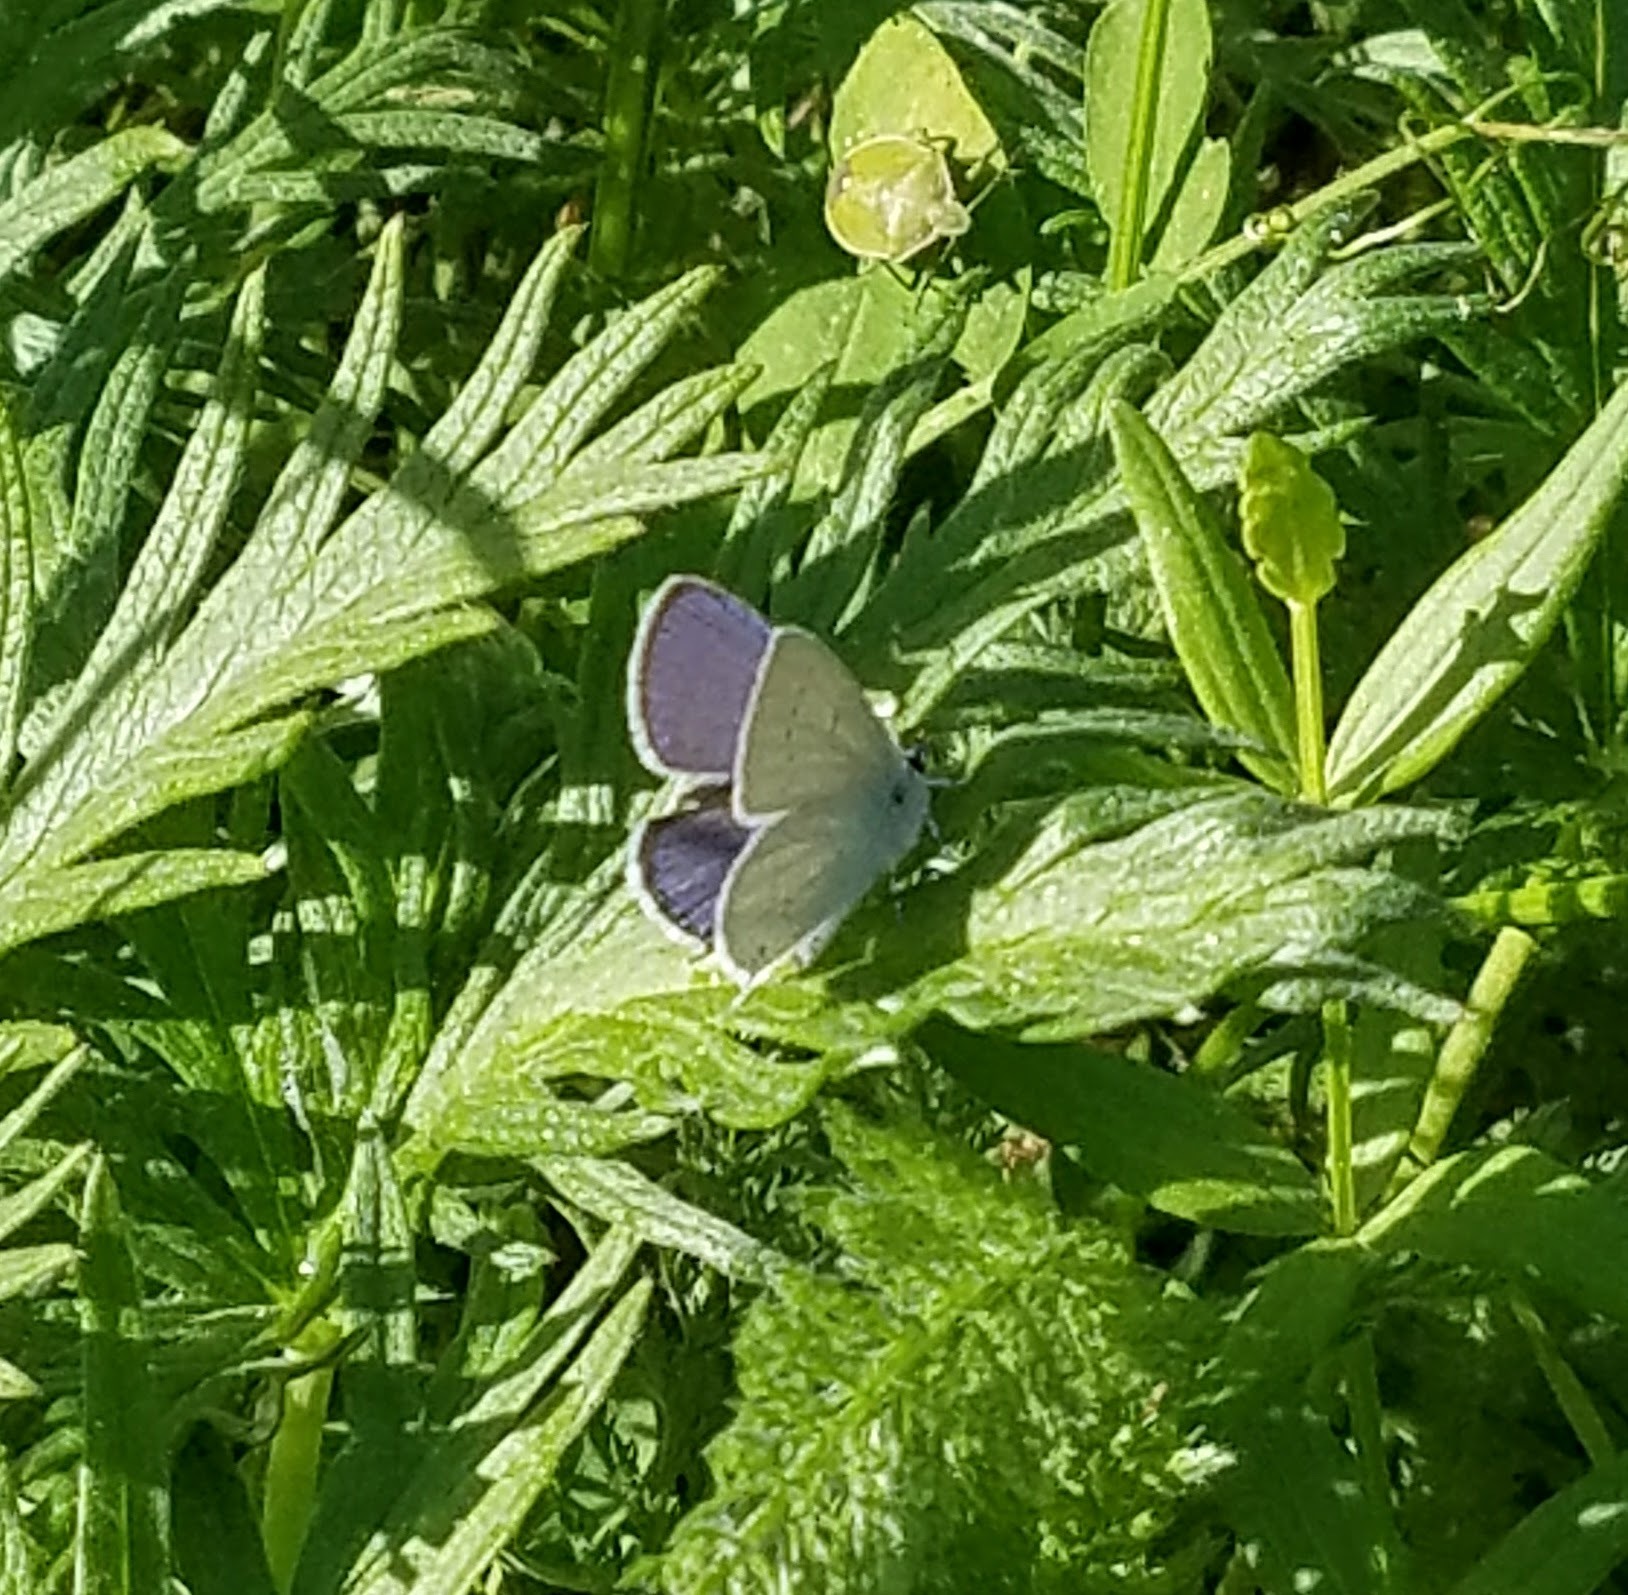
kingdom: Animalia
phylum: Arthropoda
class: Insecta
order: Lepidoptera
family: Lycaenidae
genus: Elkalyce
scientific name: Elkalyce amyntula
